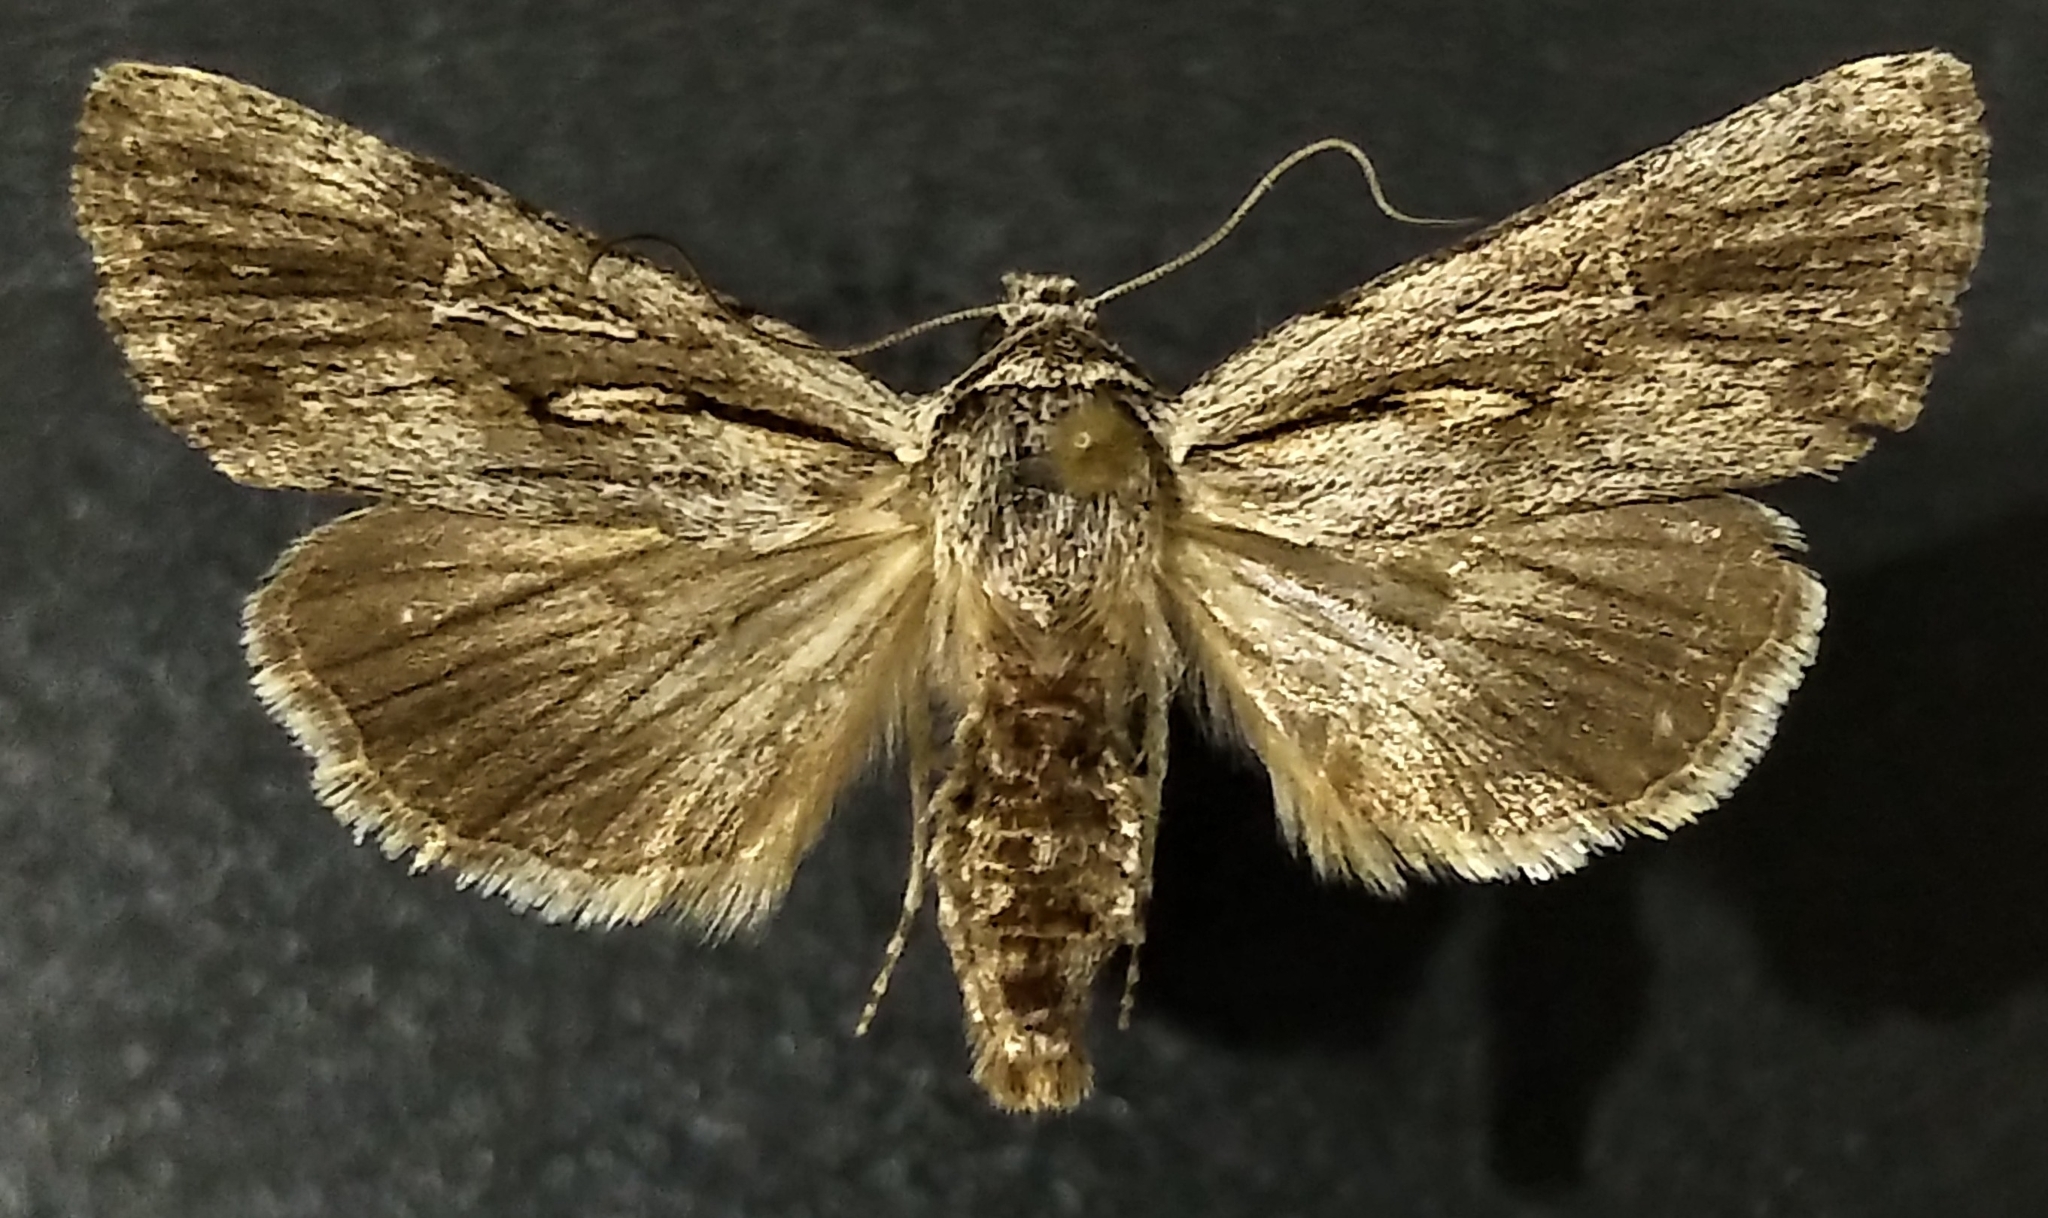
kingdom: Animalia
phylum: Arthropoda
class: Insecta
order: Lepidoptera
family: Noctuidae
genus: Sympistis
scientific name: Sympistis mackiei
